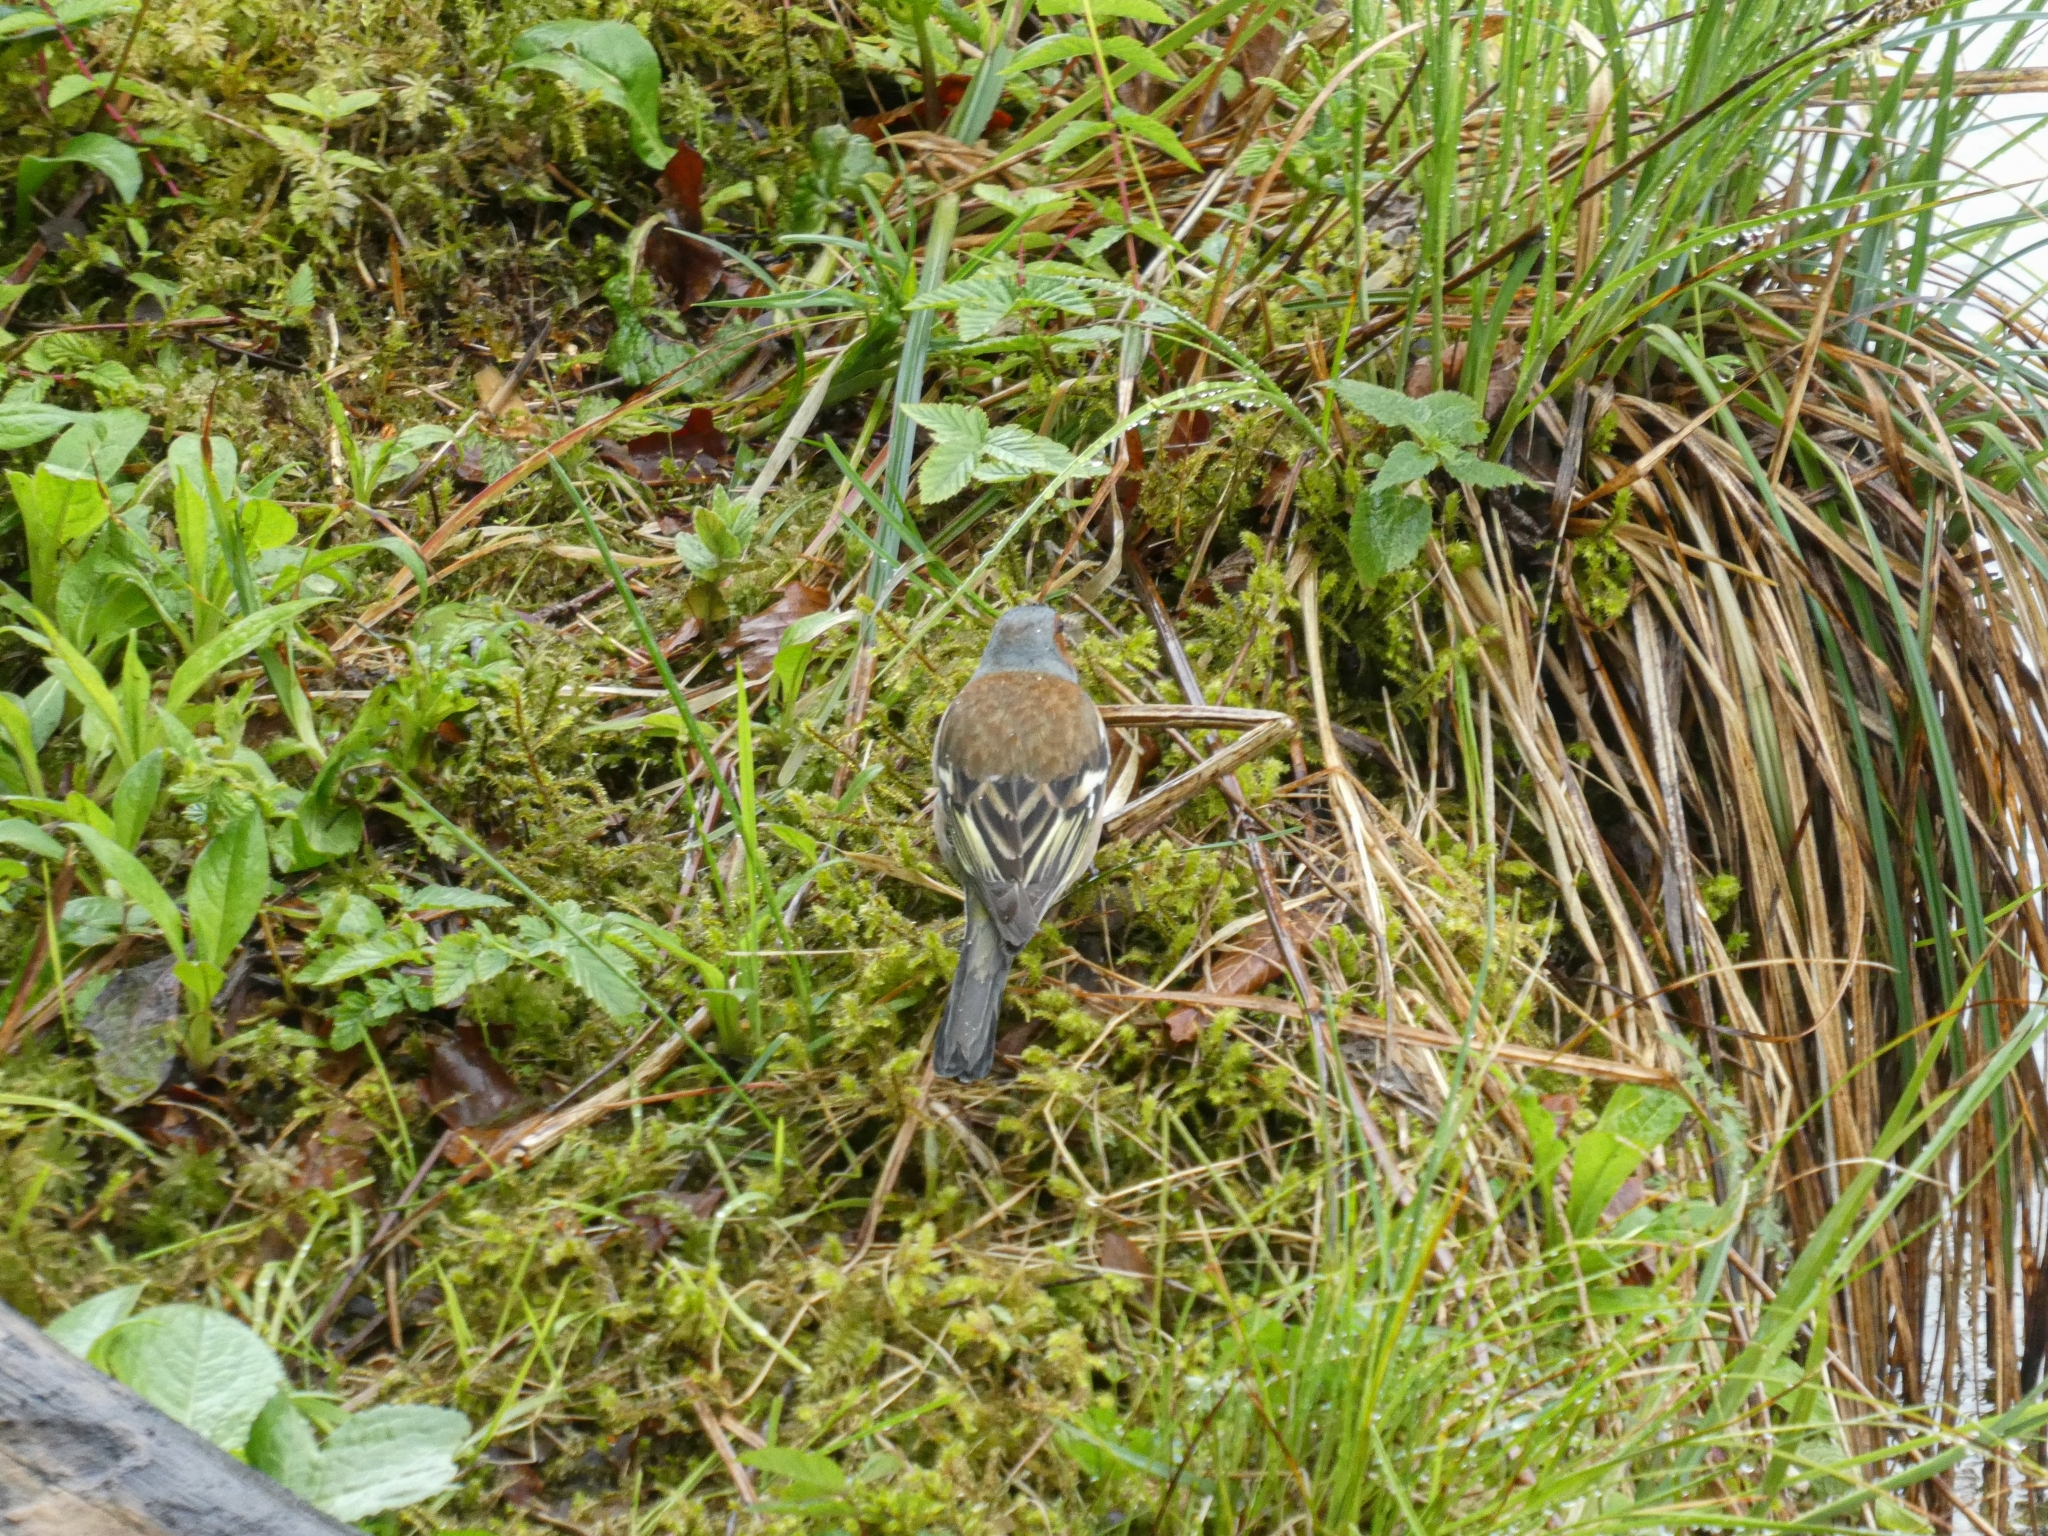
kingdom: Animalia
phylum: Chordata
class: Aves
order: Passeriformes
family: Fringillidae
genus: Fringilla
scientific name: Fringilla coelebs
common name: Common chaffinch
